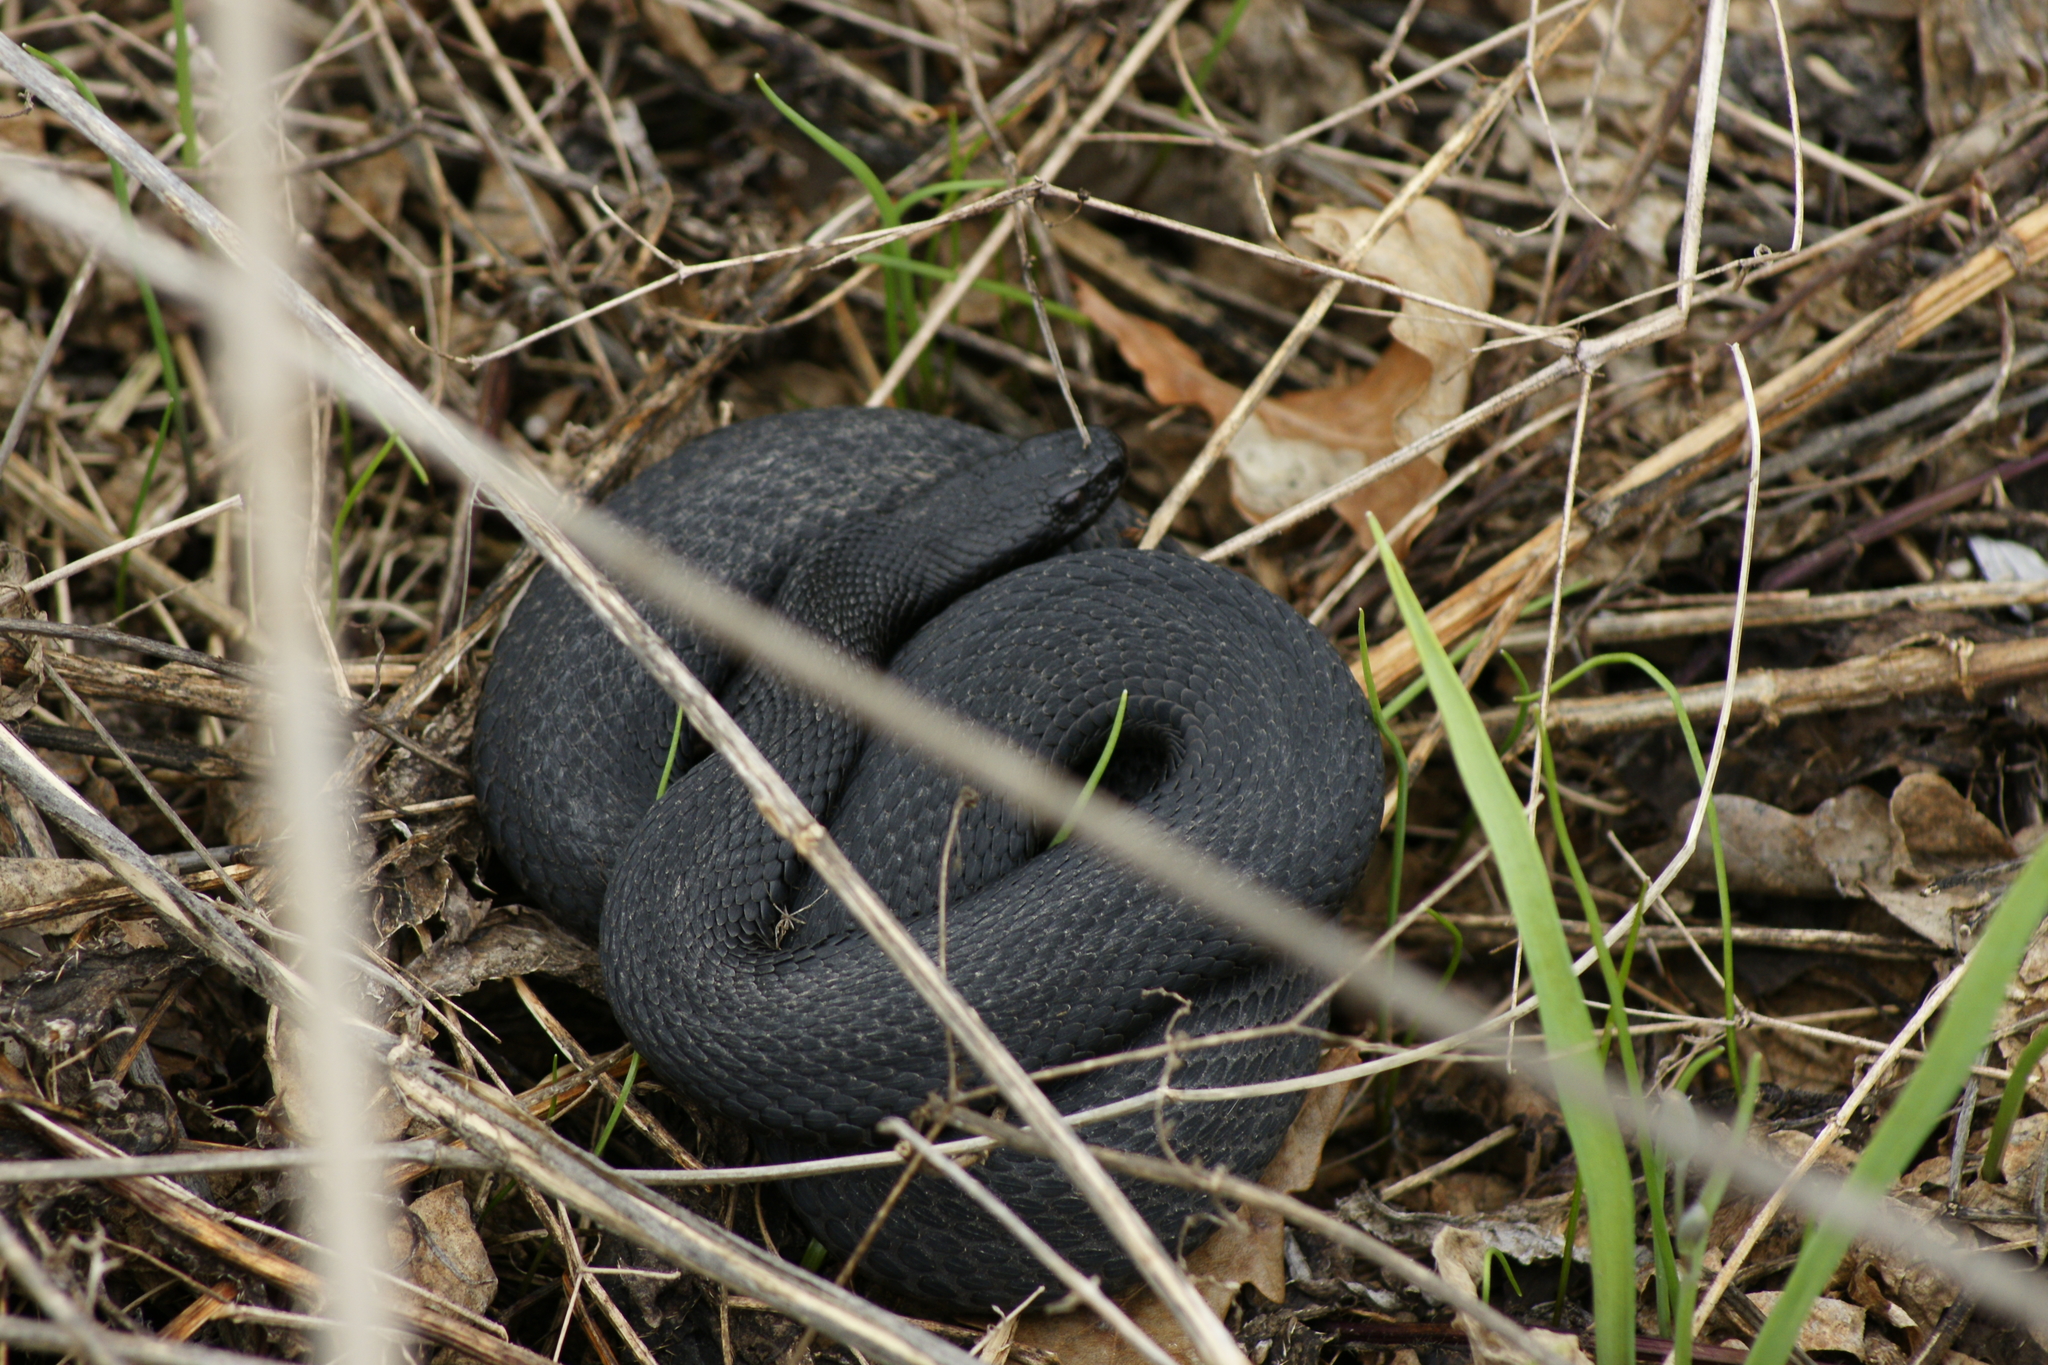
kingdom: Animalia
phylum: Chordata
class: Squamata
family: Viperidae
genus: Vipera
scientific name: Vipera nikolskii
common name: Adder
